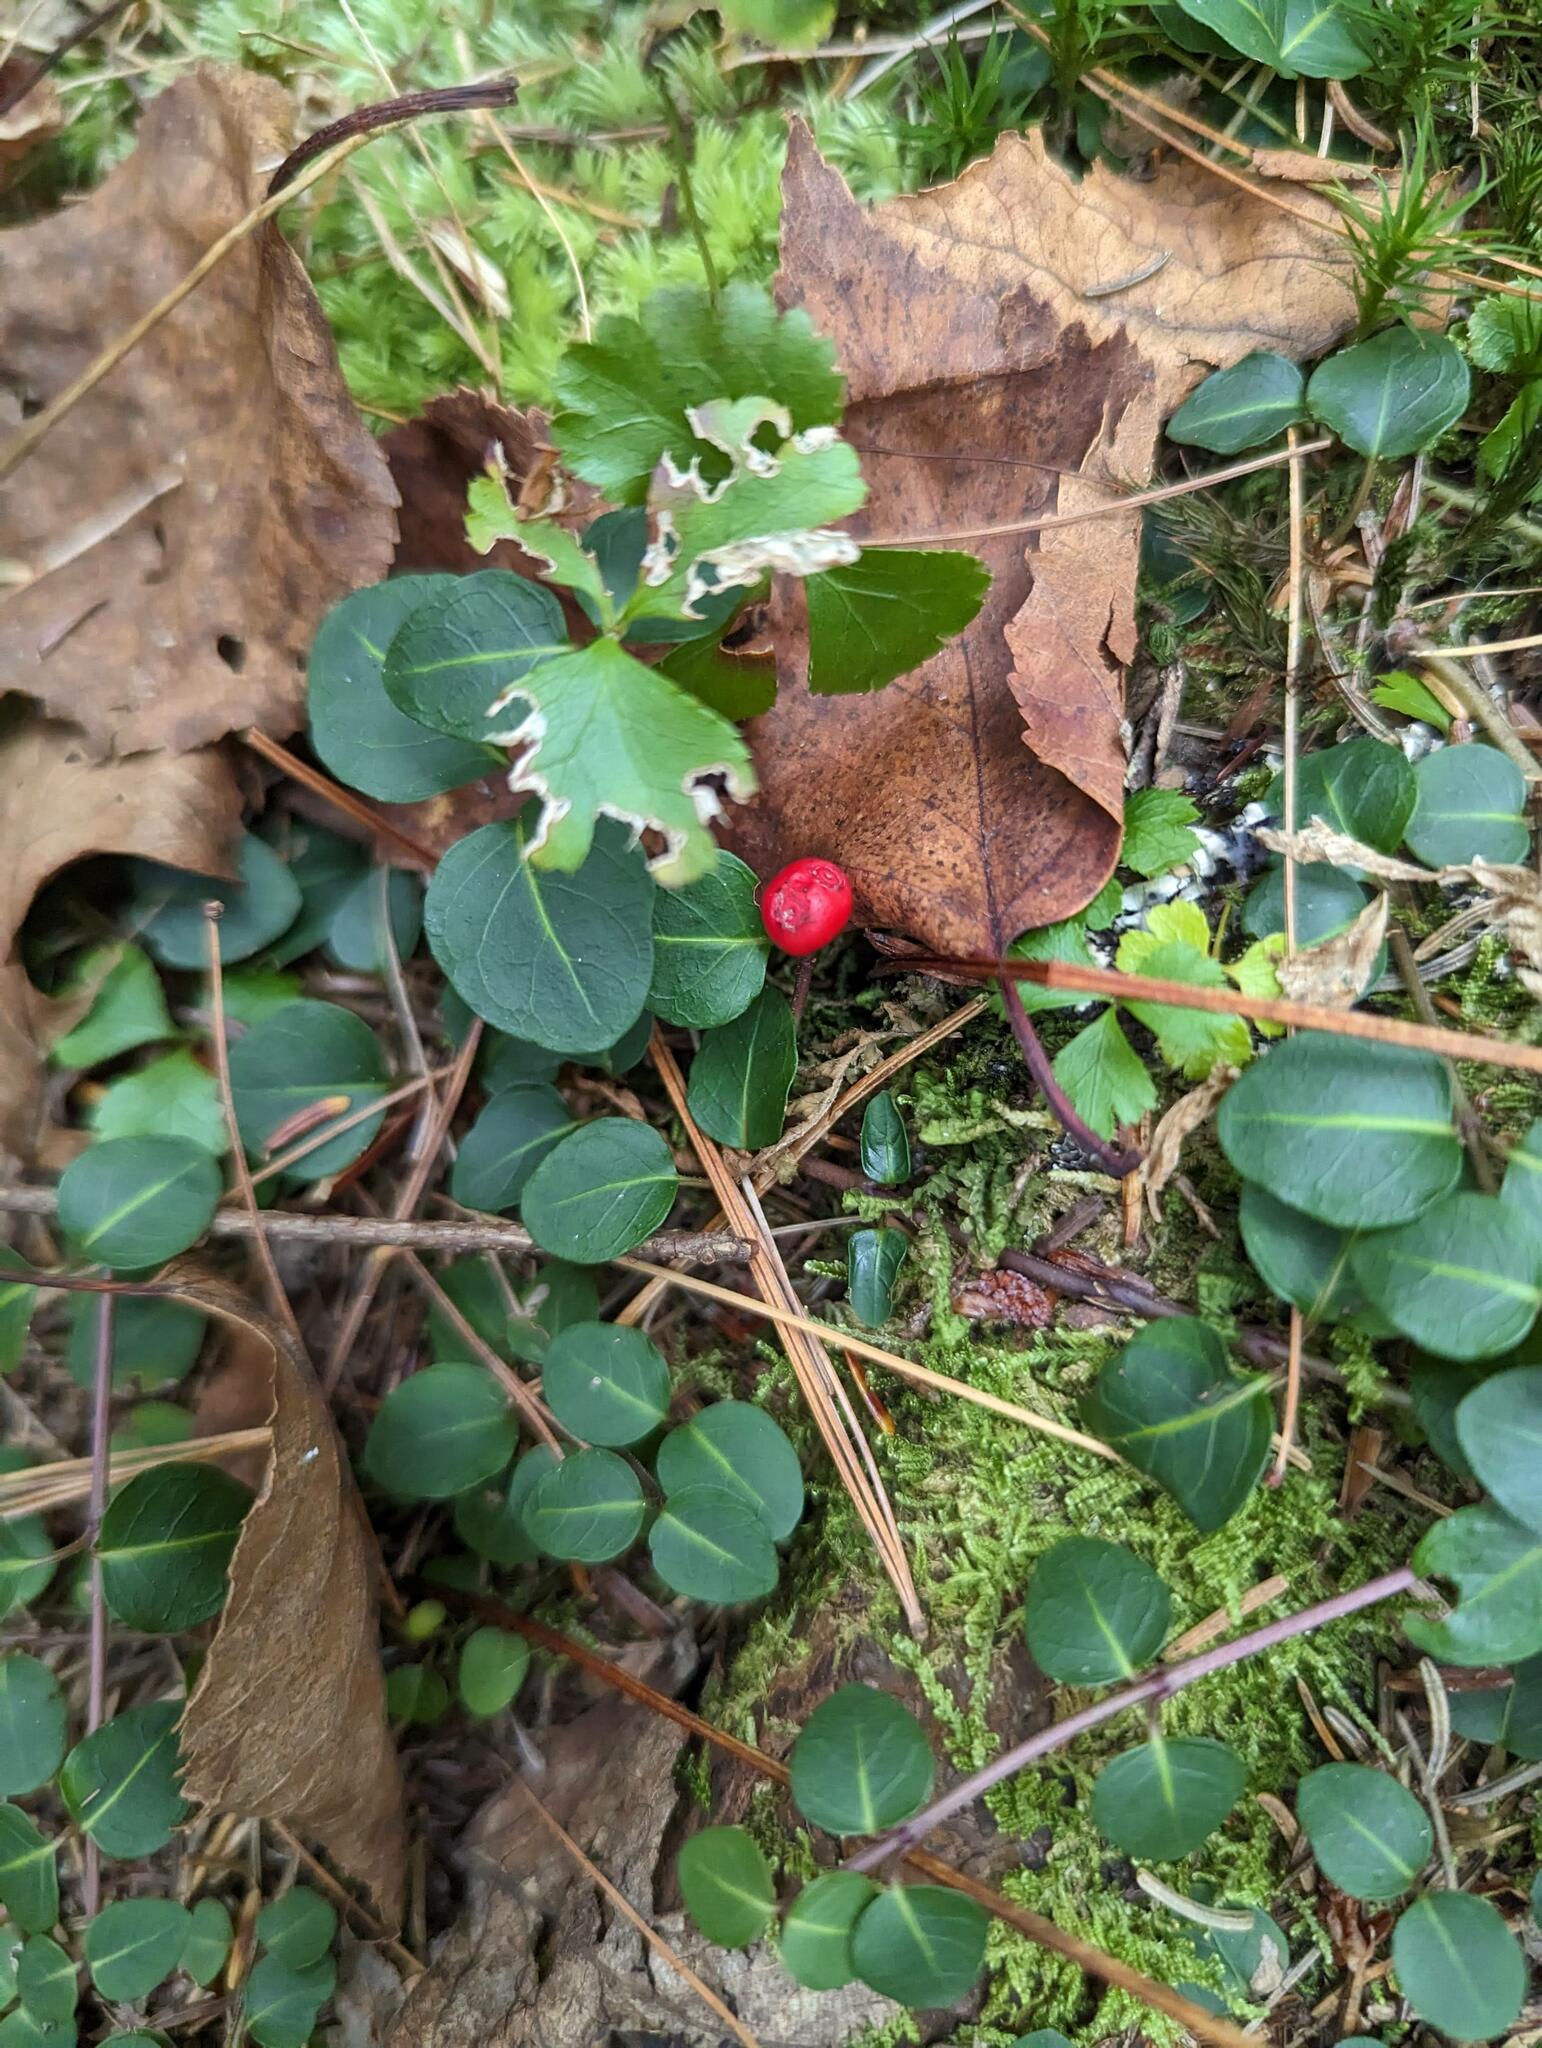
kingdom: Plantae
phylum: Tracheophyta
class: Magnoliopsida
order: Gentianales
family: Rubiaceae
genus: Mitchella
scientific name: Mitchella repens
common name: Partridge-berry
